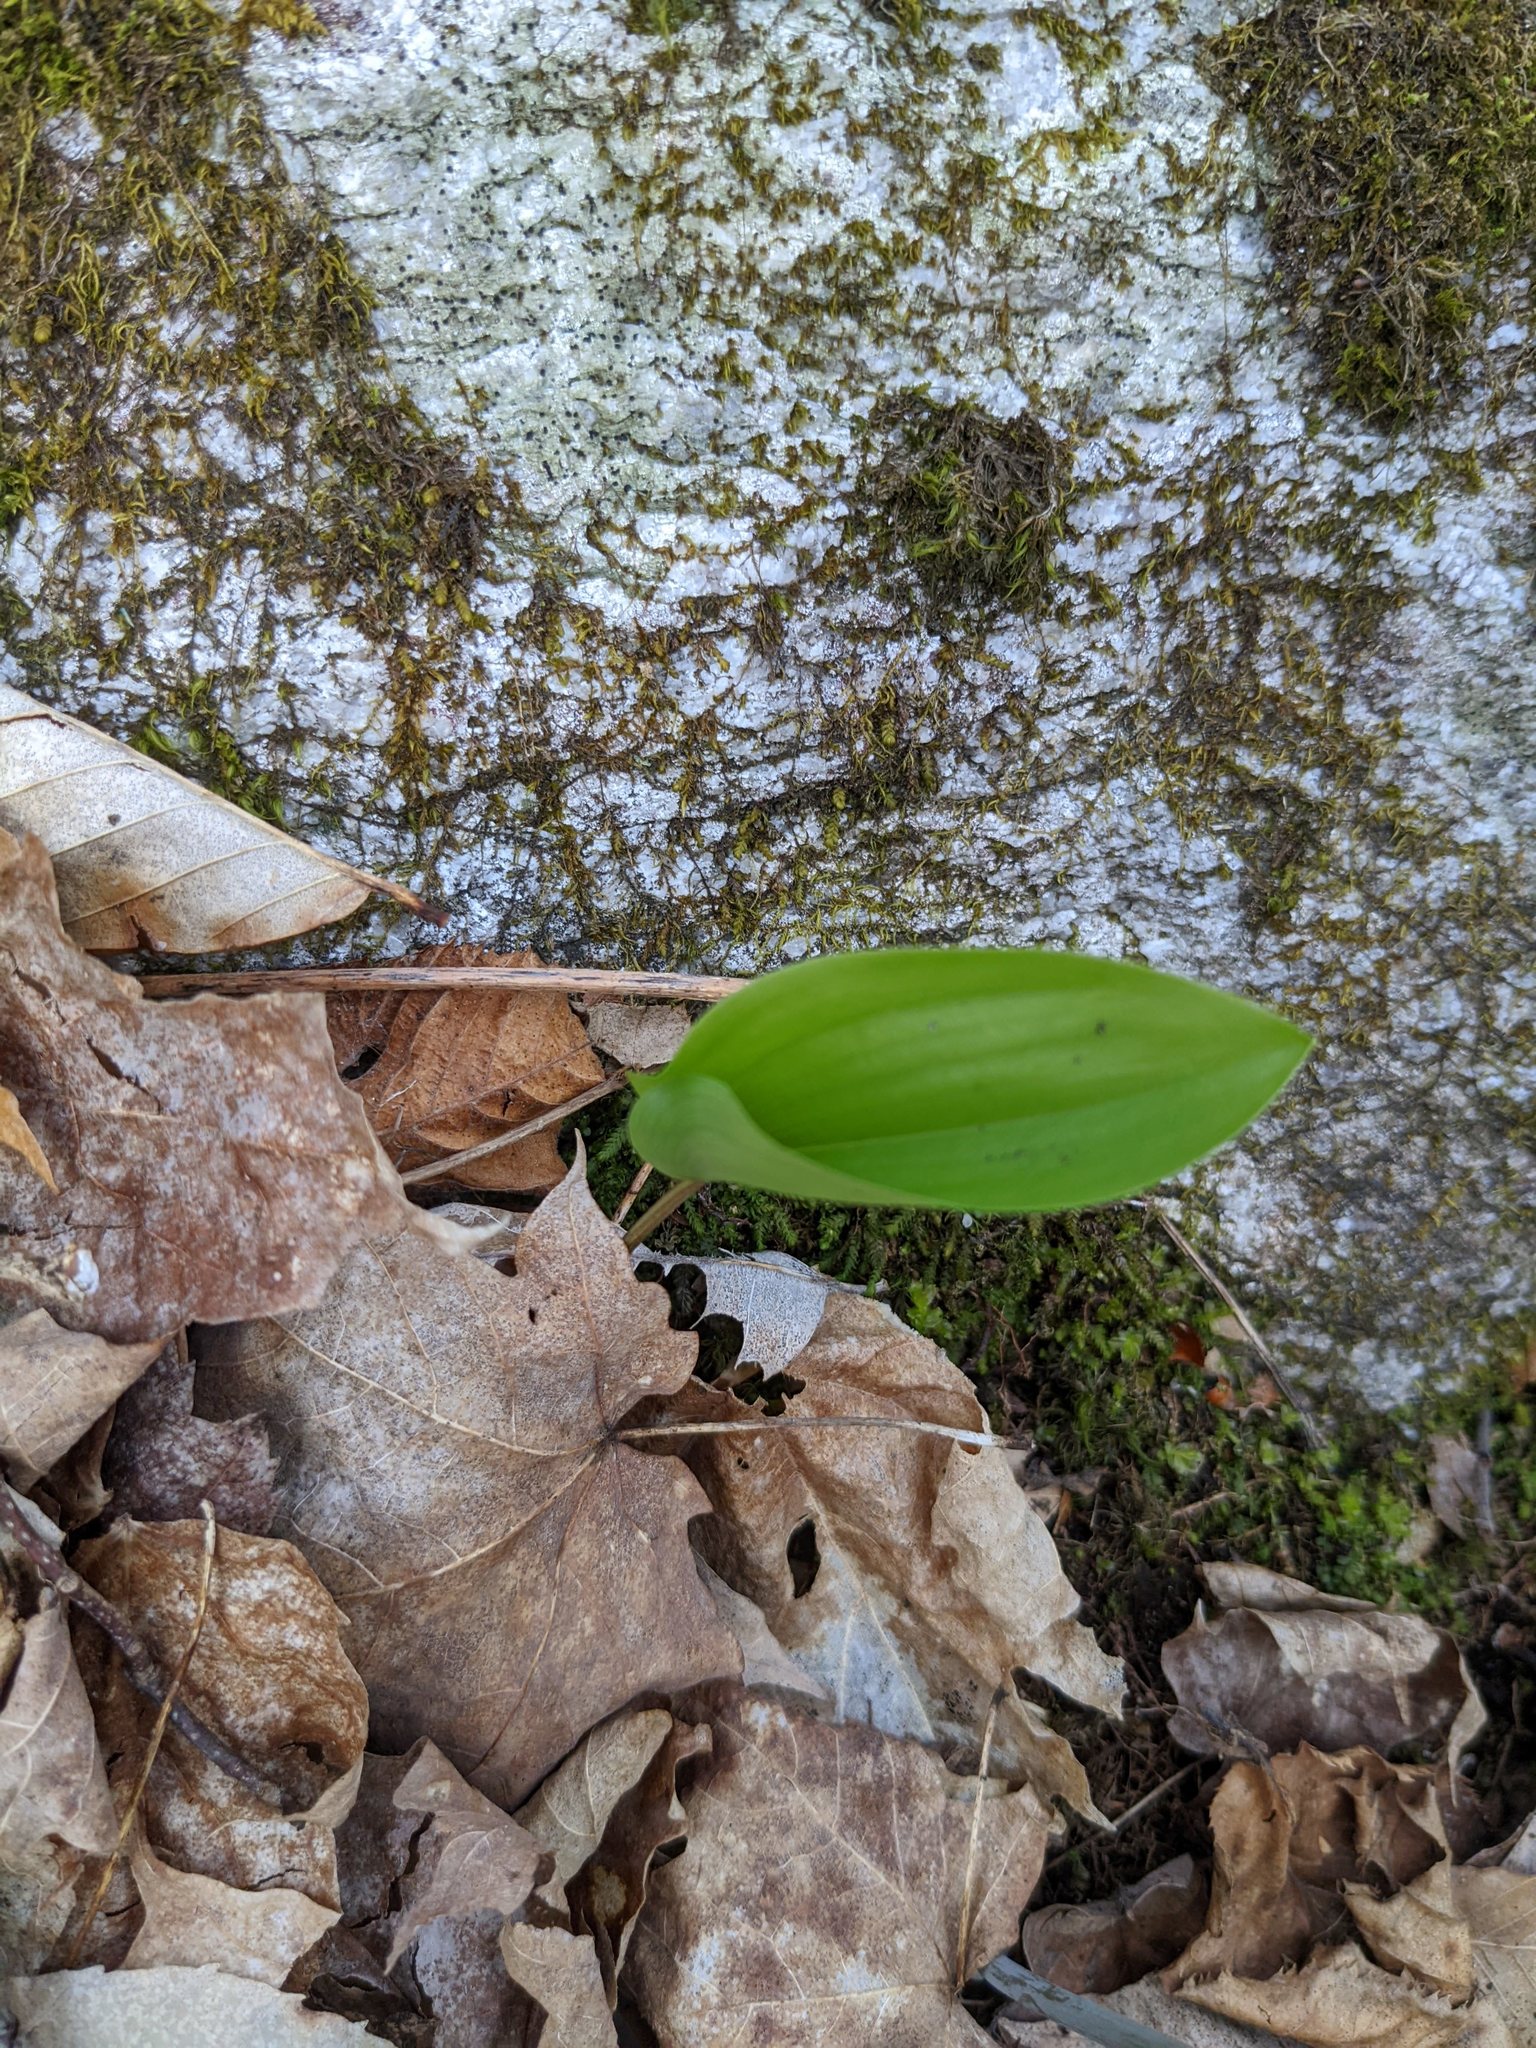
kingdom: Plantae
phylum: Tracheophyta
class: Liliopsida
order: Asparagales
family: Asparagaceae
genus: Maianthemum
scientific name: Maianthemum canadense
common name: False lily-of-the-valley
